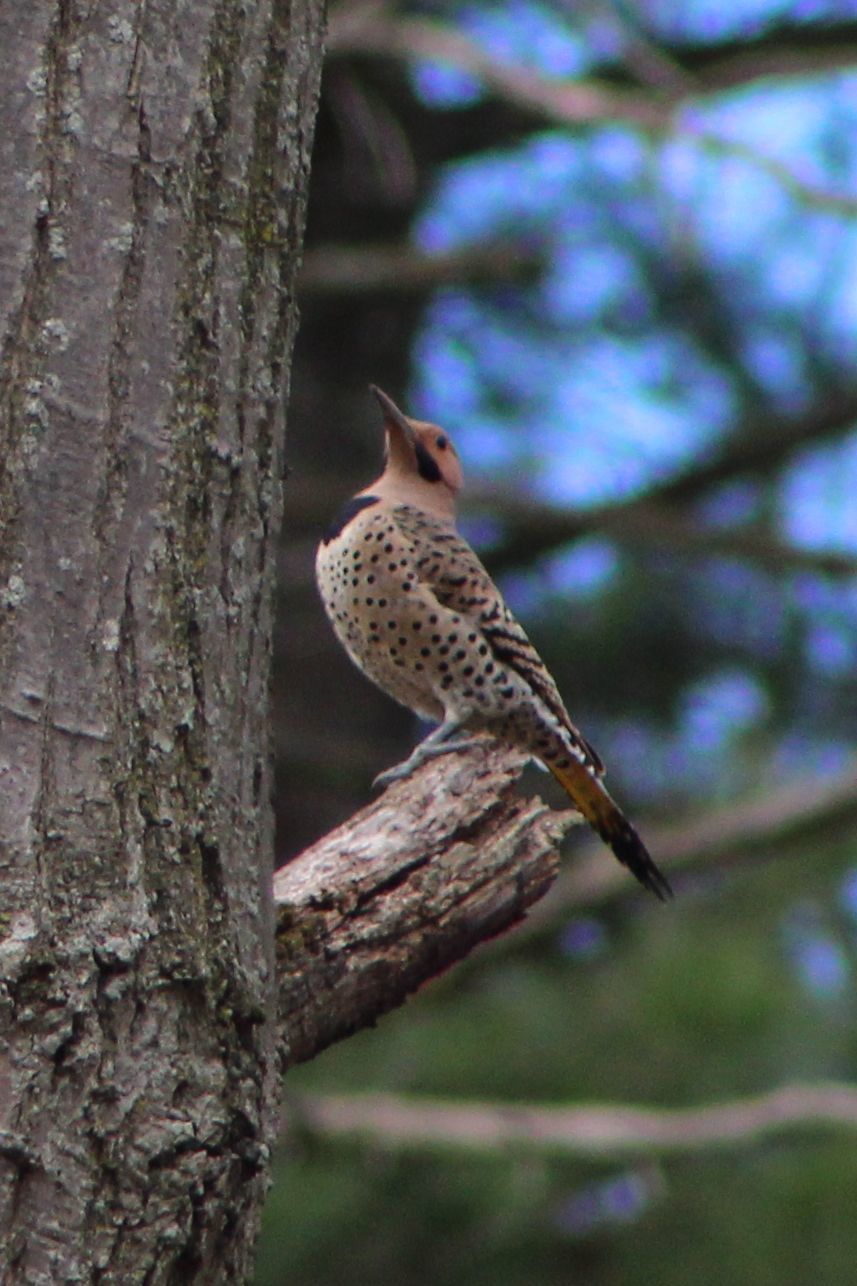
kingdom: Animalia
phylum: Chordata
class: Aves
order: Piciformes
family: Picidae
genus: Colaptes
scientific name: Colaptes auratus
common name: Northern flicker
